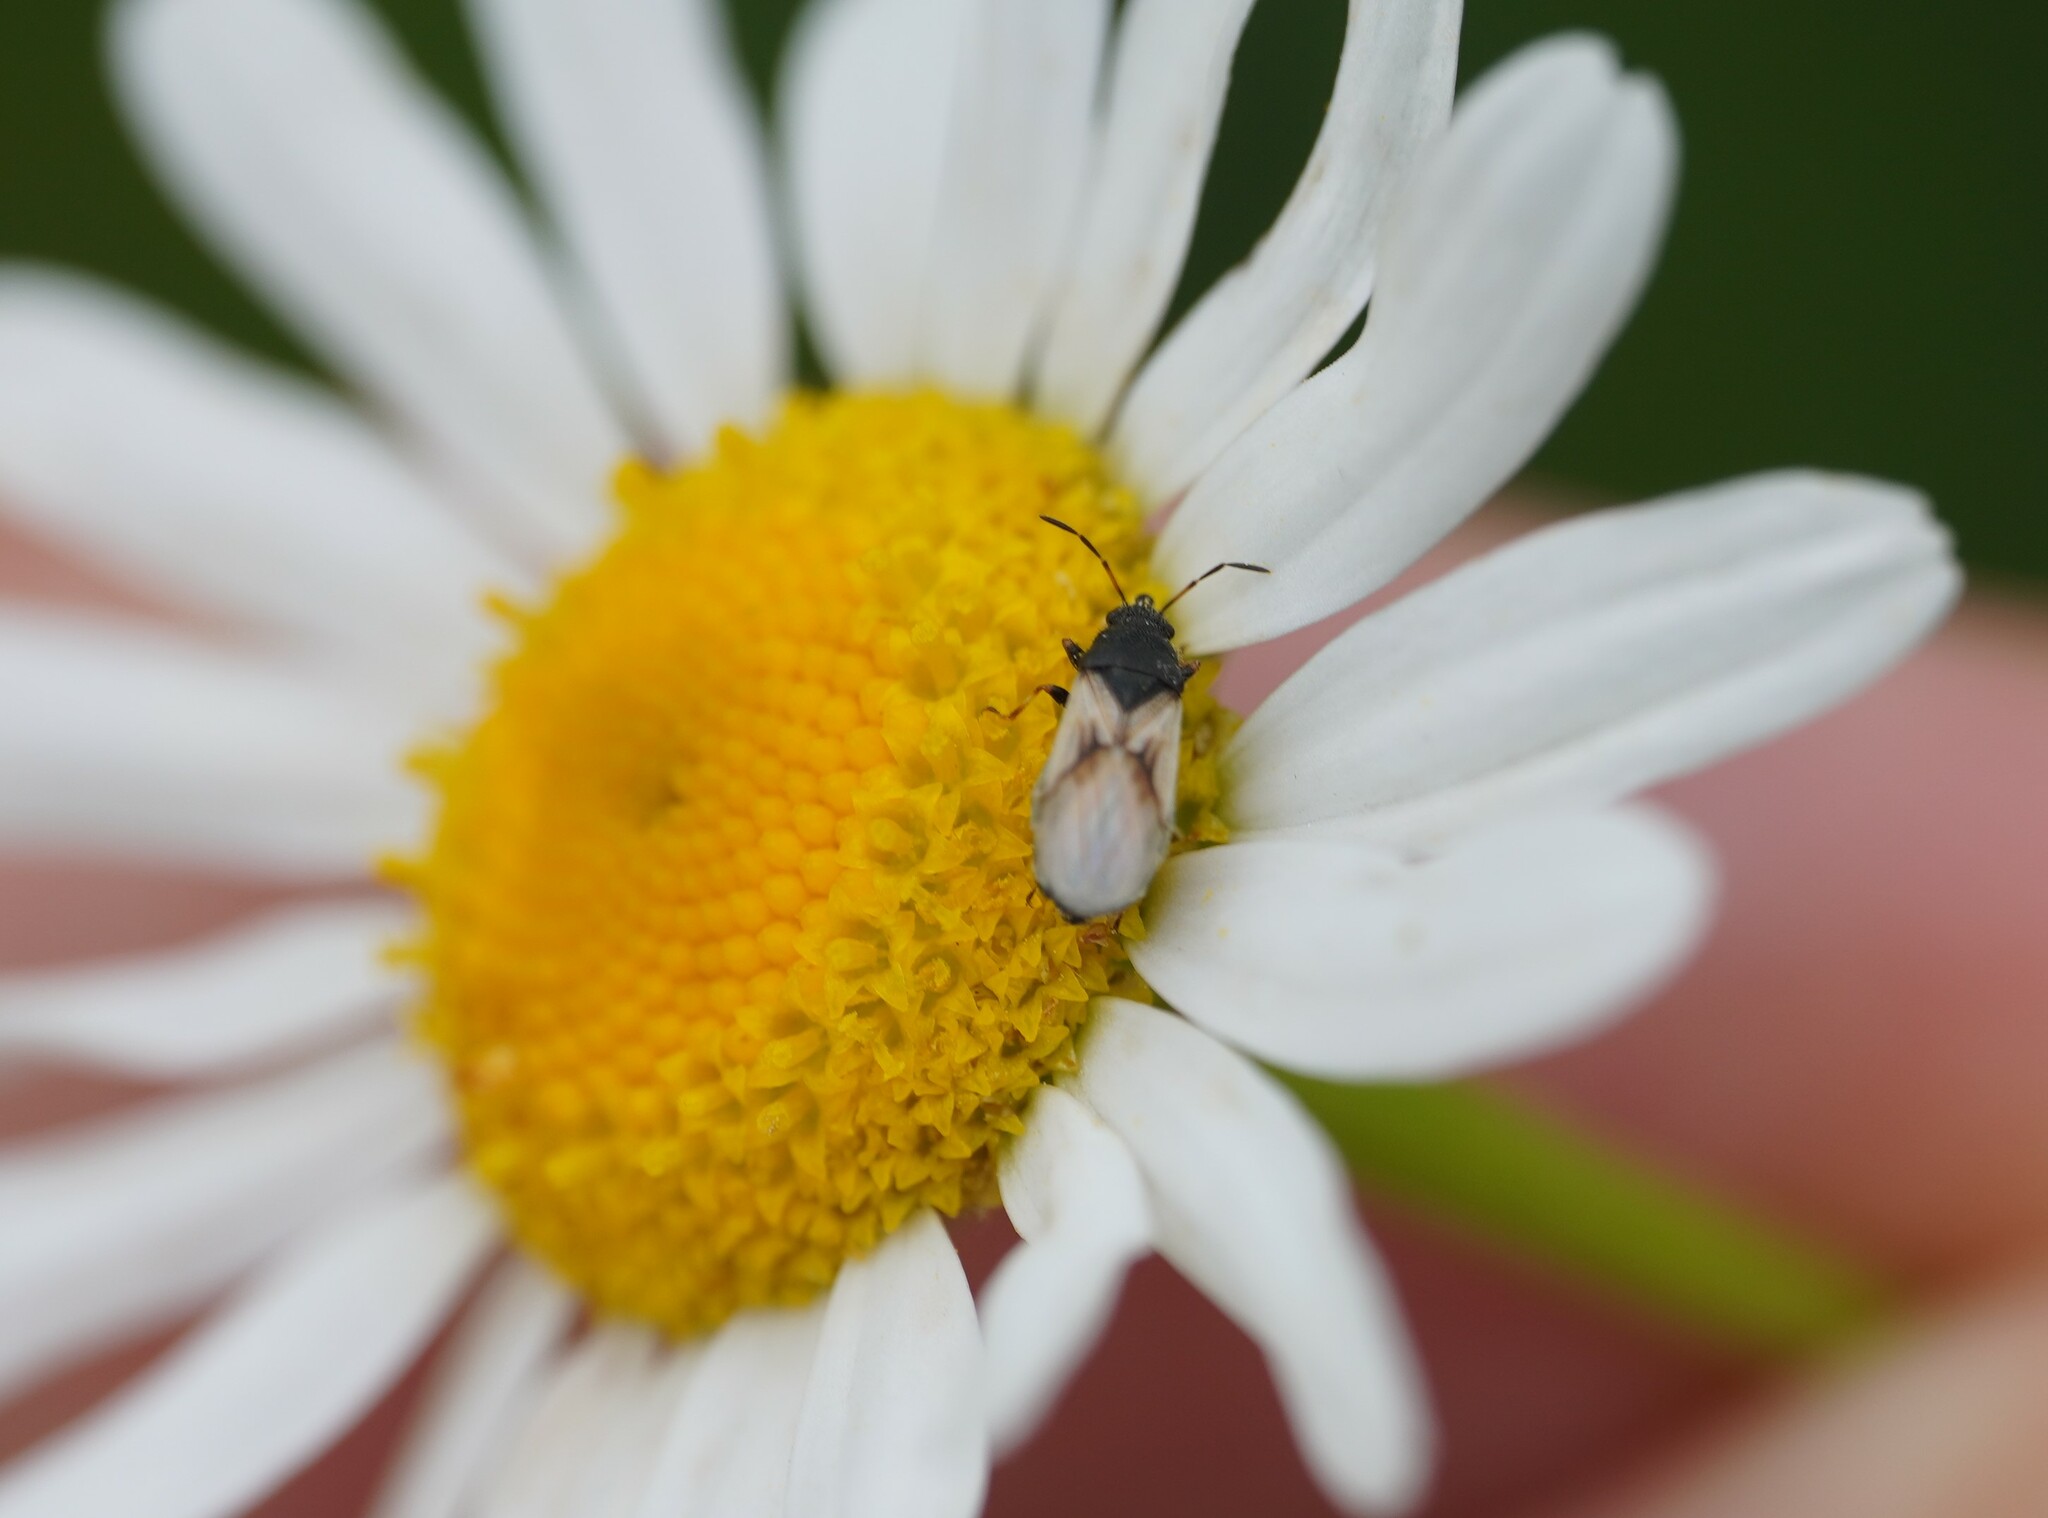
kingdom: Animalia
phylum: Arthropoda
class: Insecta
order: Hemiptera
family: Oxycarenidae
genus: Metopoplax
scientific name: Metopoplax ditomoides
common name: Seed bug
